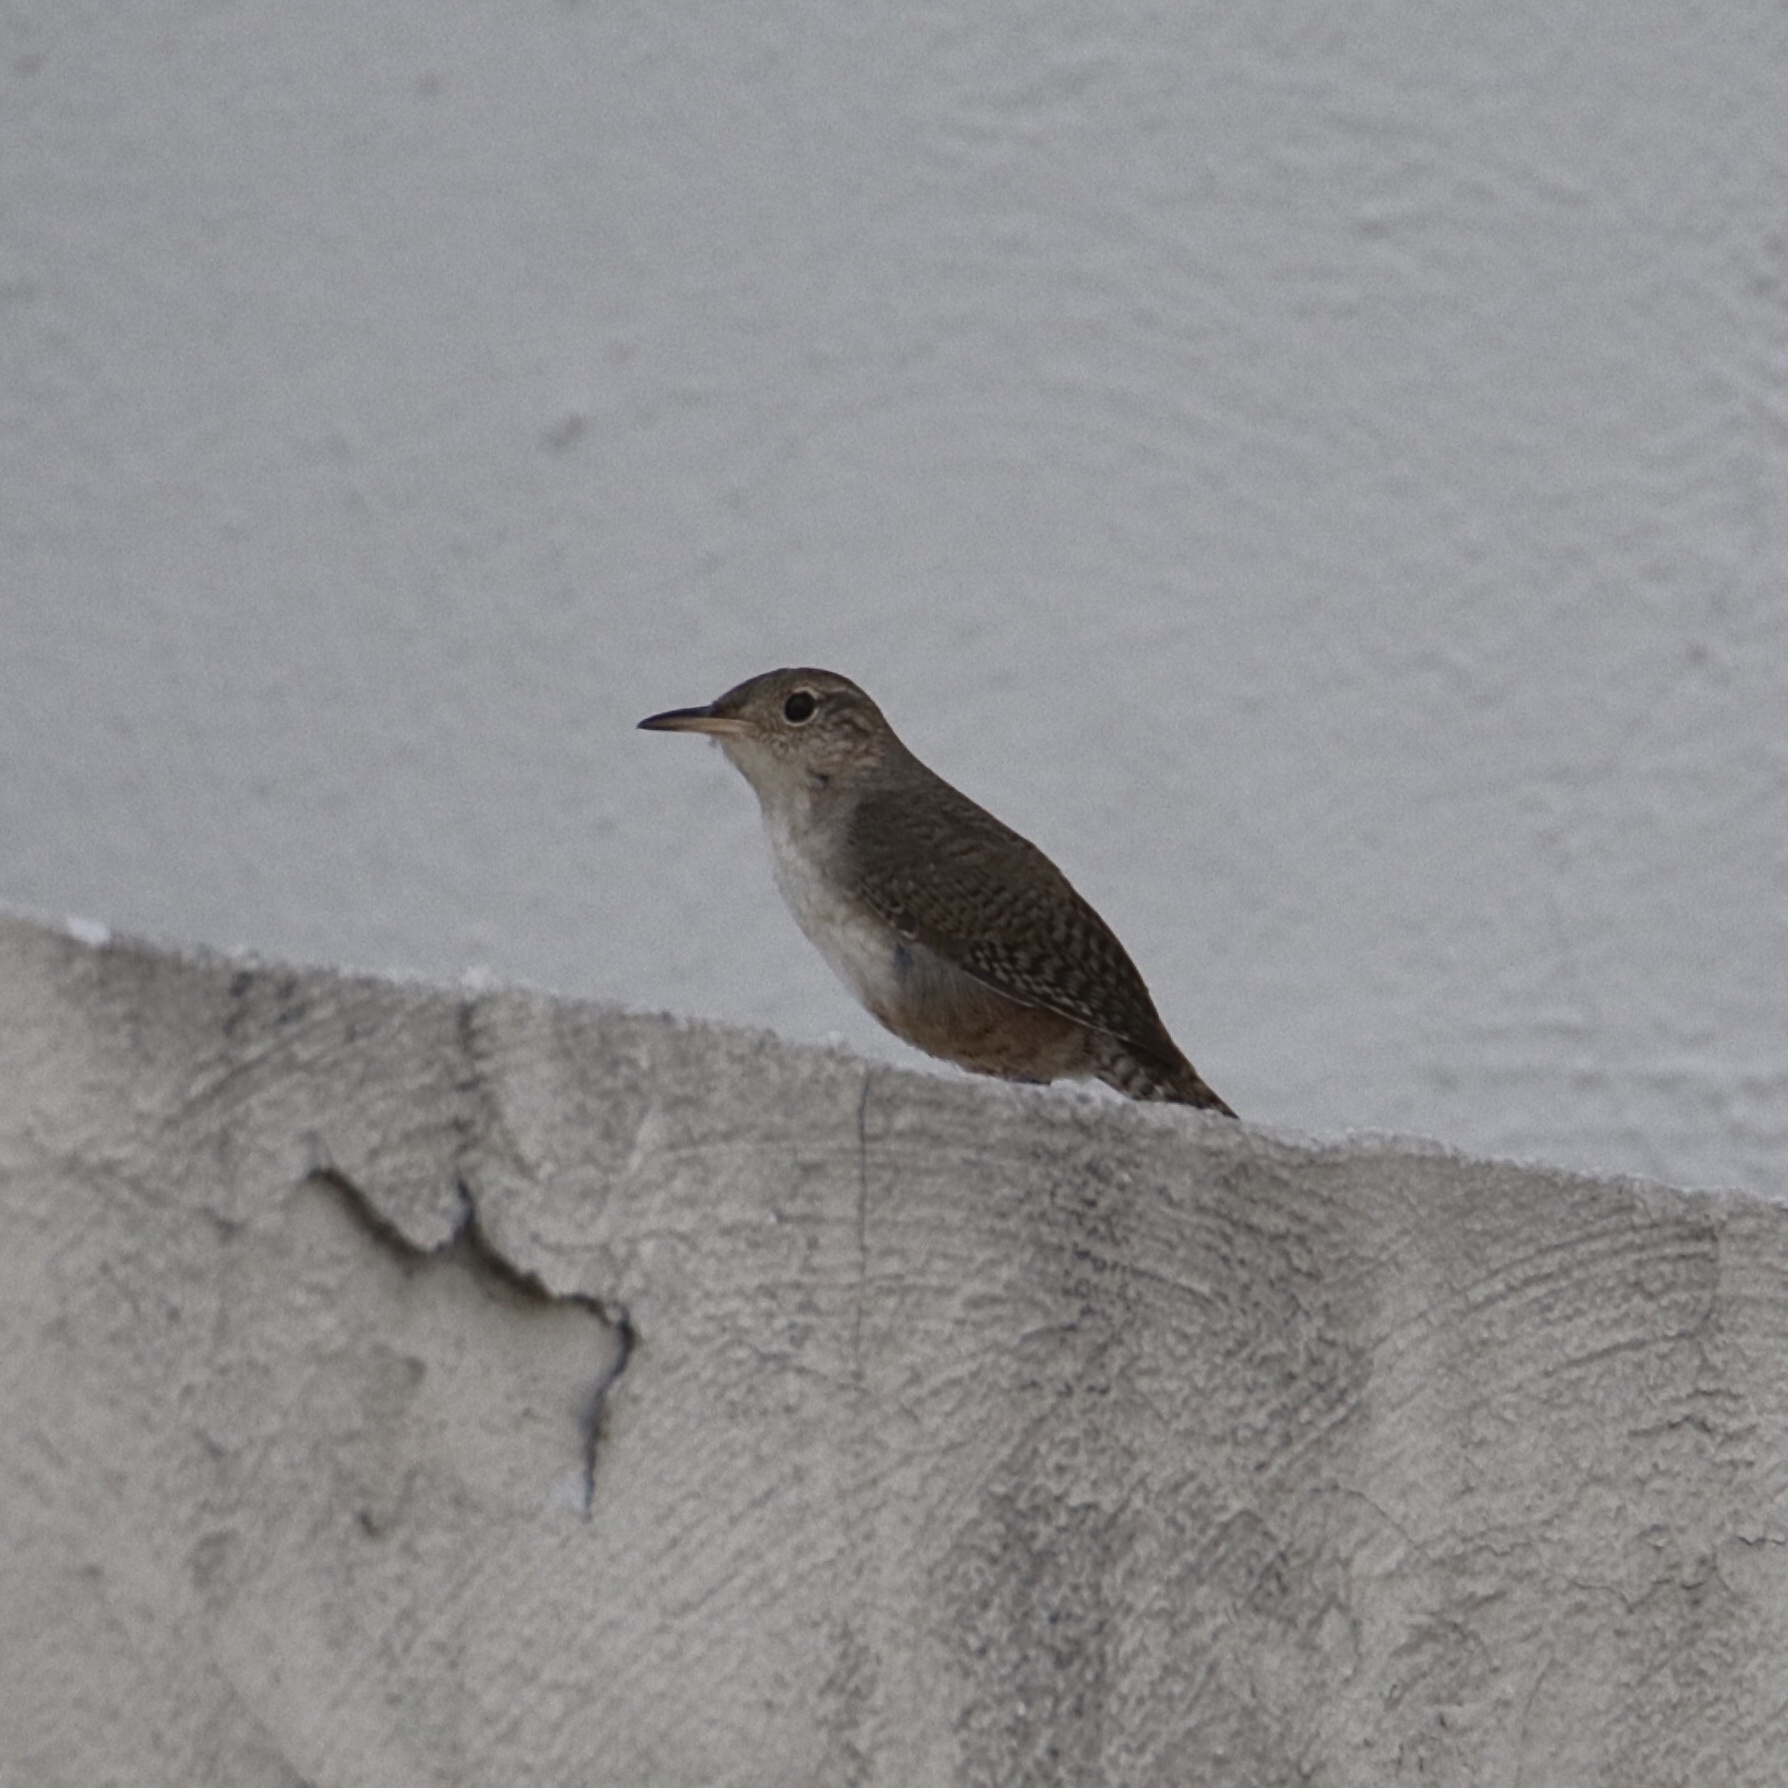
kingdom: Animalia
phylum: Chordata
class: Aves
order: Passeriformes
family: Troglodytidae
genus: Troglodytes
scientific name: Troglodytes aedon
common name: House wren
